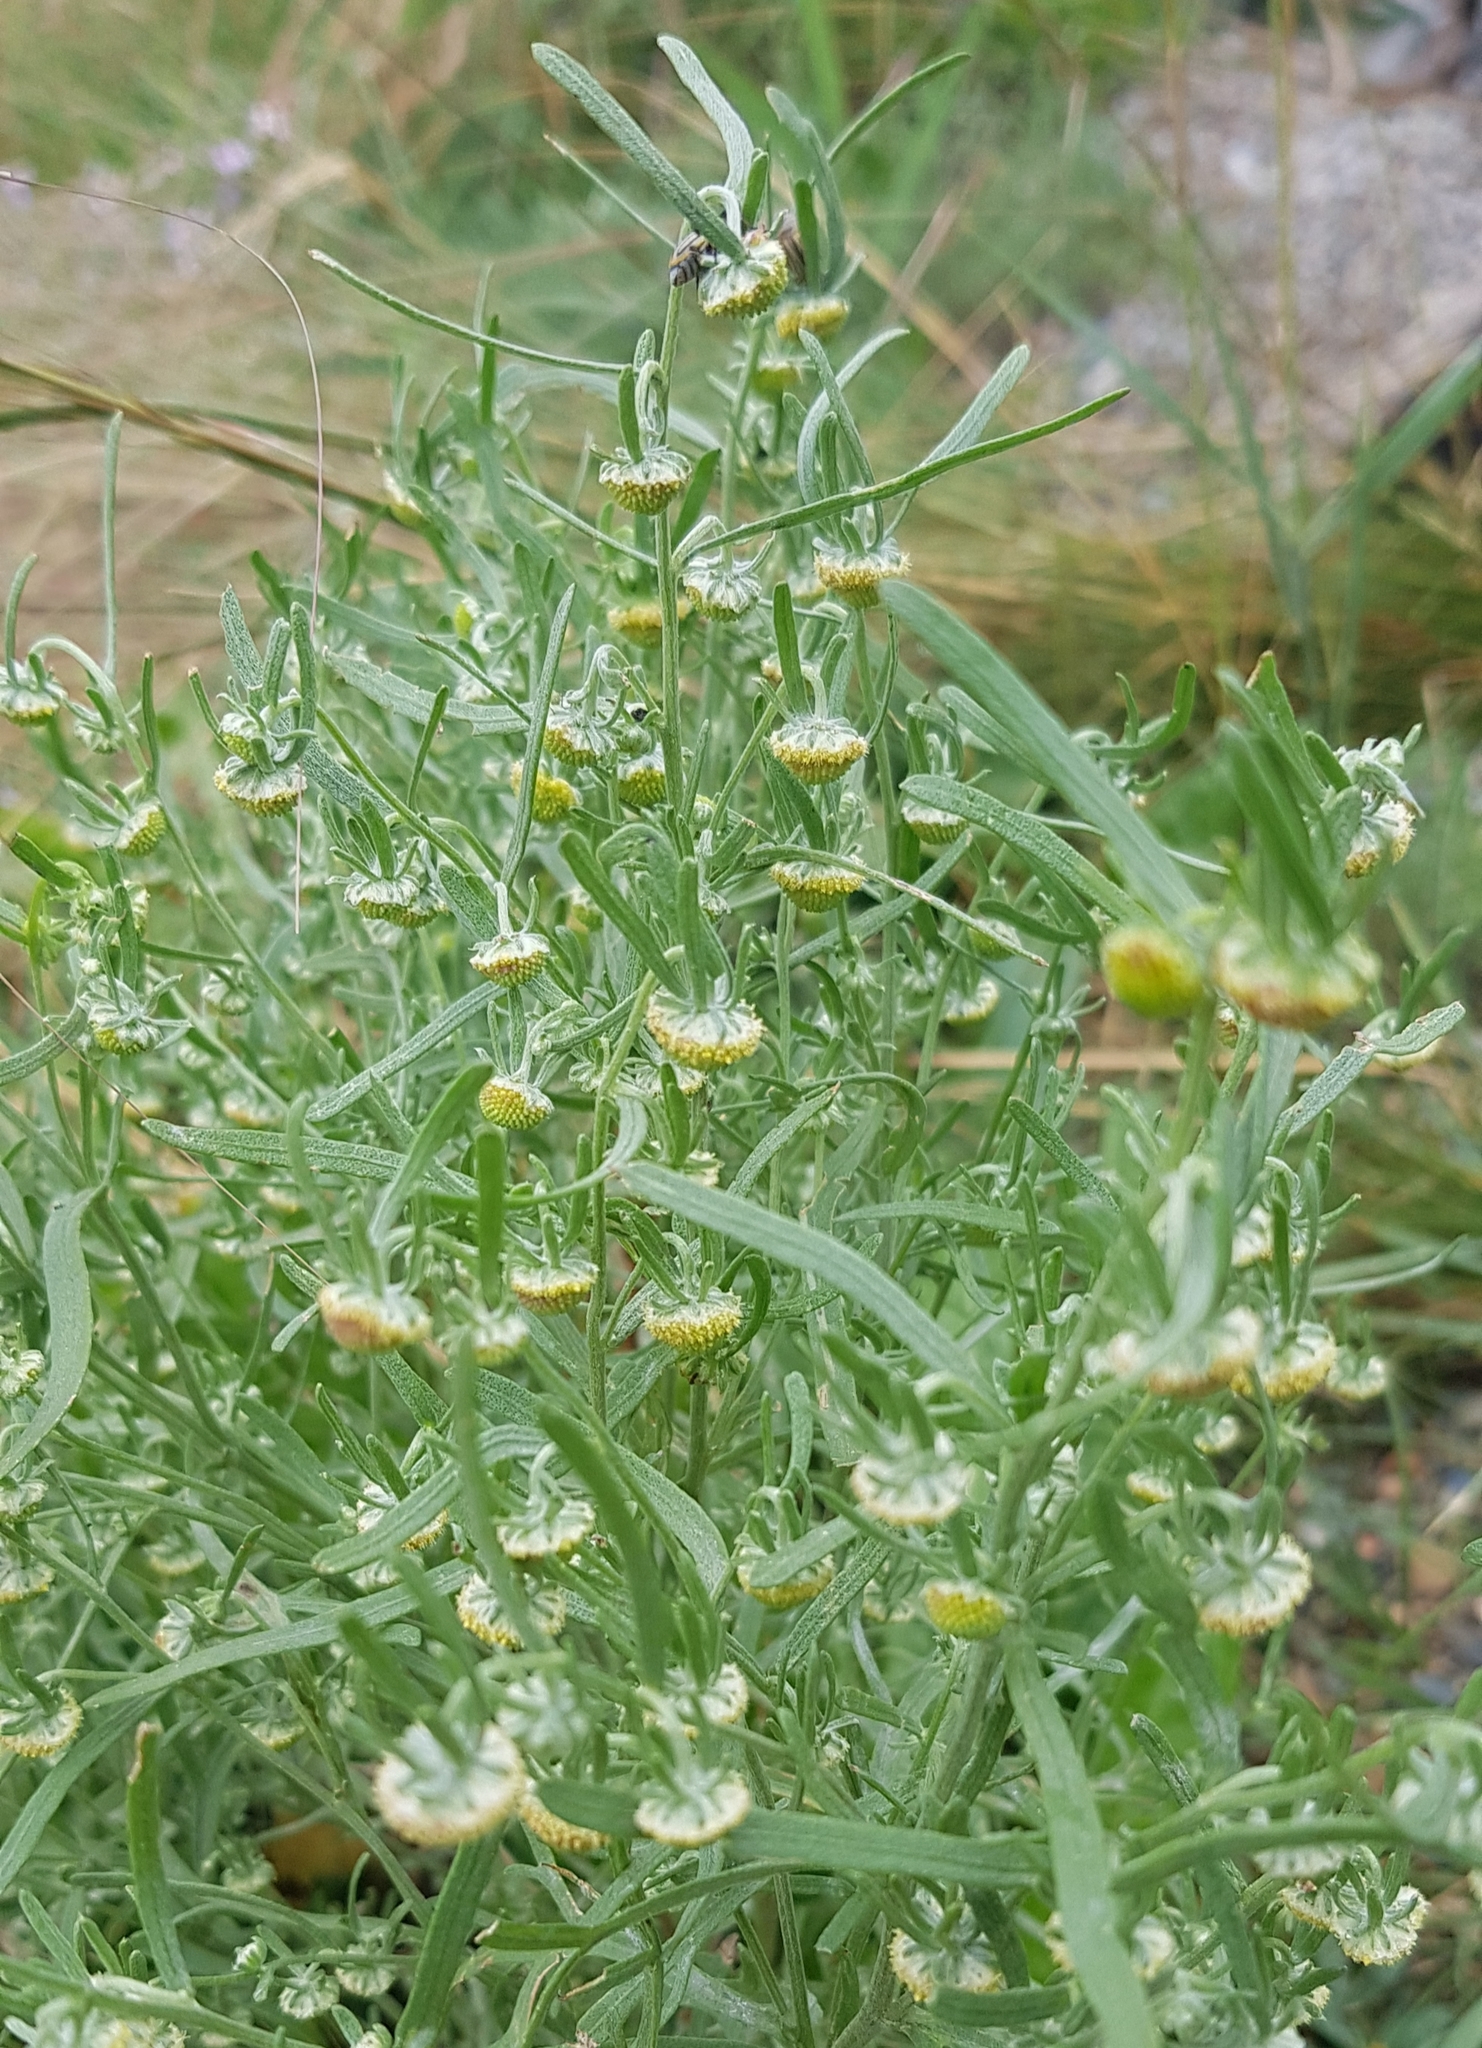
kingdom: Plantae
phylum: Tracheophyta
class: Magnoliopsida
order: Asterales
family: Asteraceae
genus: Artemisia
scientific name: Artemisia macrocephala
